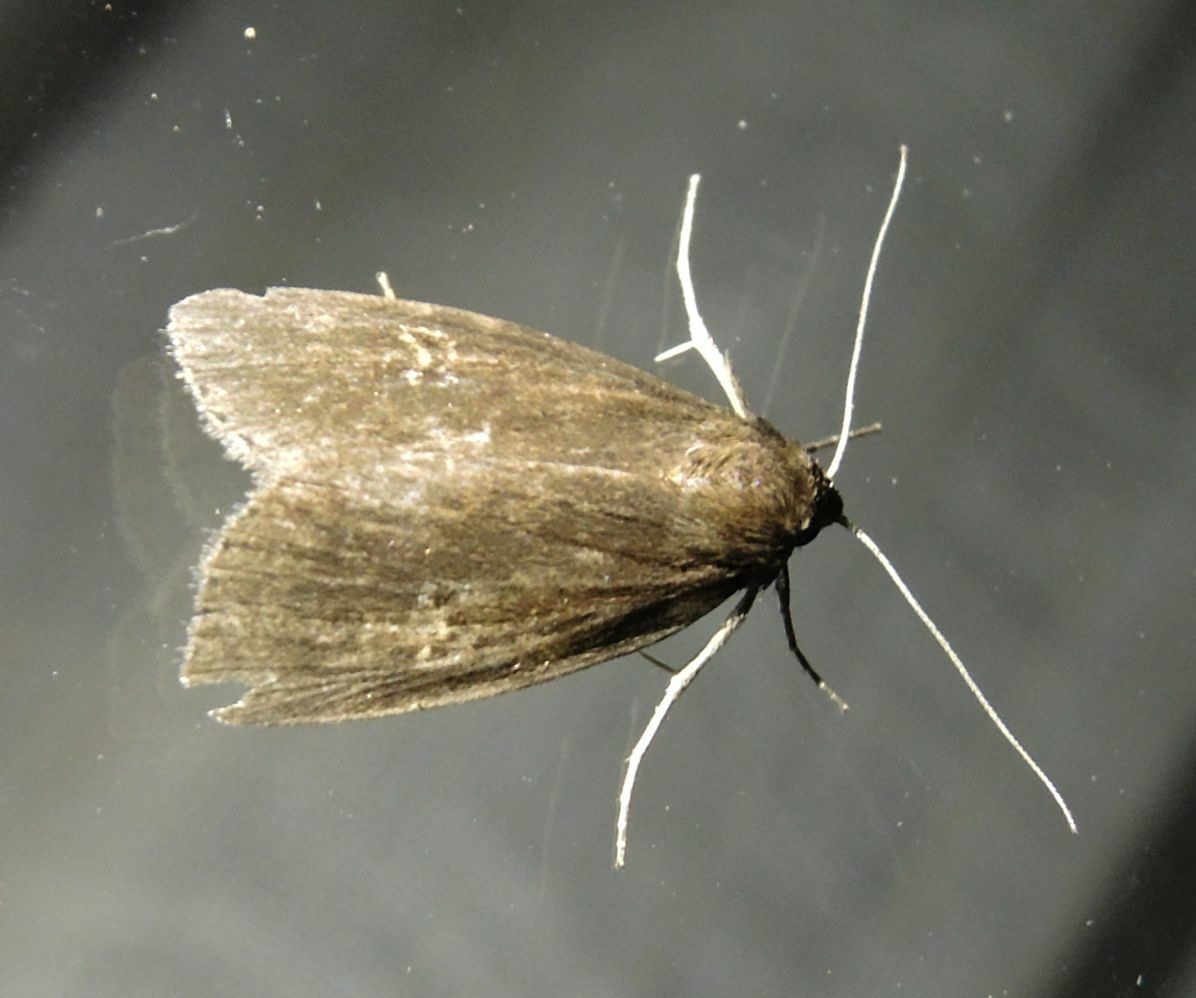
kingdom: Animalia
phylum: Arthropoda
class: Insecta
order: Lepidoptera
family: Noctuidae
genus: Archanara
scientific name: Archanara dissoluta
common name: Brown-veined wainscot
